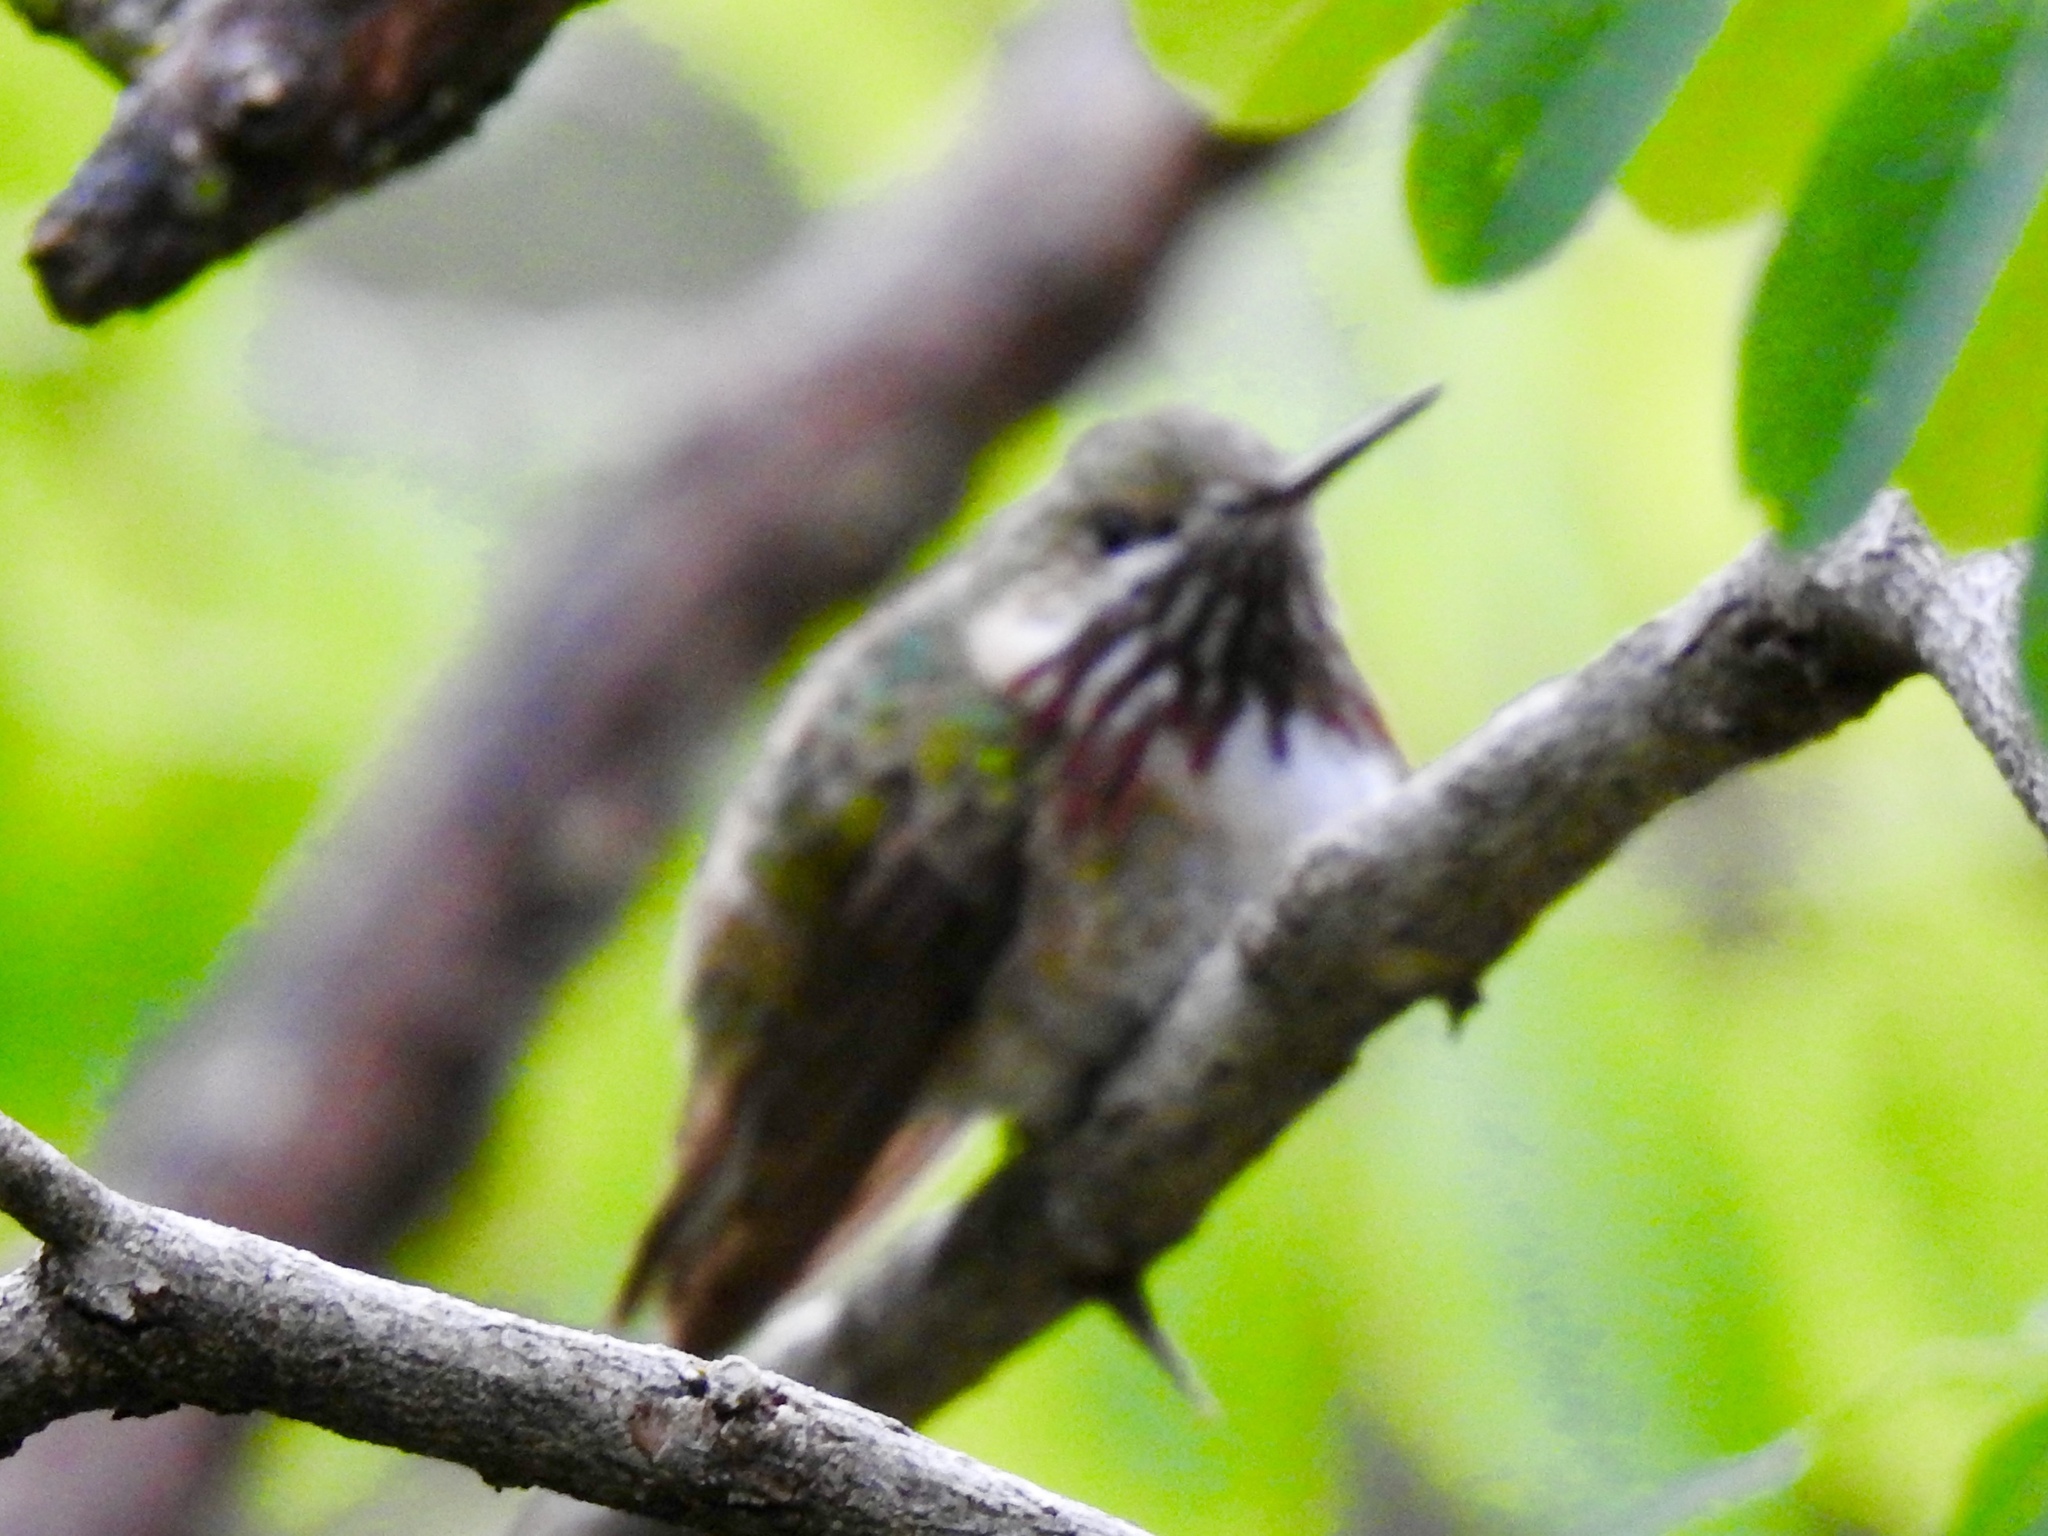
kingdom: Animalia
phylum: Chordata
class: Aves
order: Apodiformes
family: Trochilidae
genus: Selasphorus
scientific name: Selasphorus calliope
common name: Calliope hummingbird
